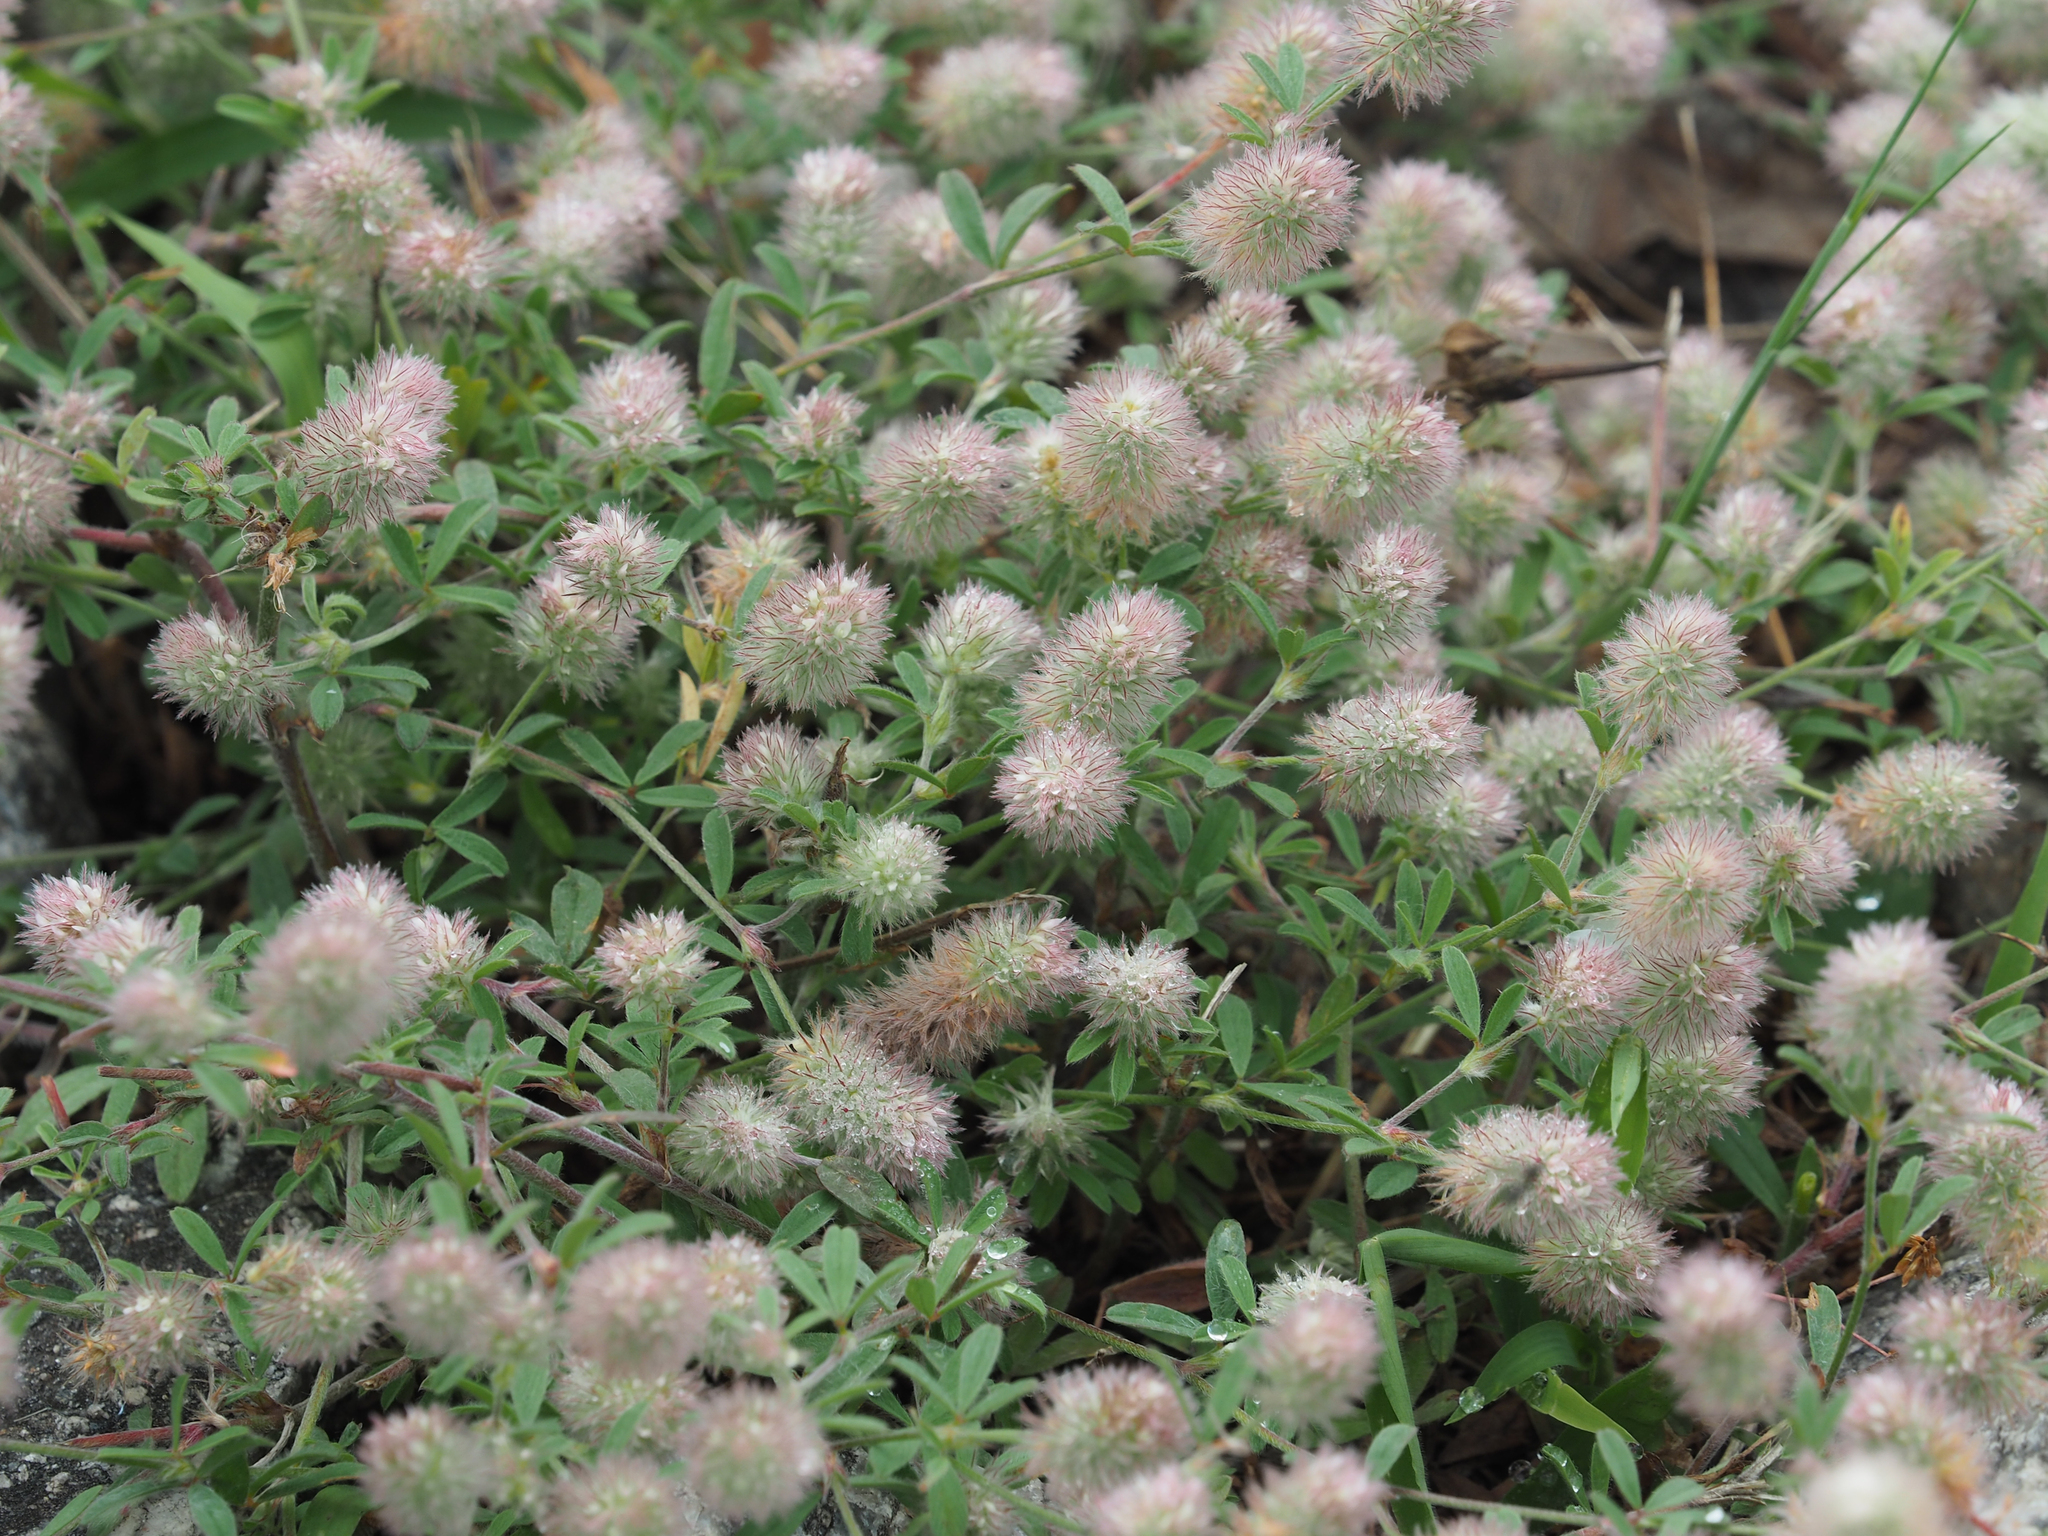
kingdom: Plantae
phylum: Tracheophyta
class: Magnoliopsida
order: Fabales
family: Fabaceae
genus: Trifolium
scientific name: Trifolium arvense
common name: Hare's-foot clover
